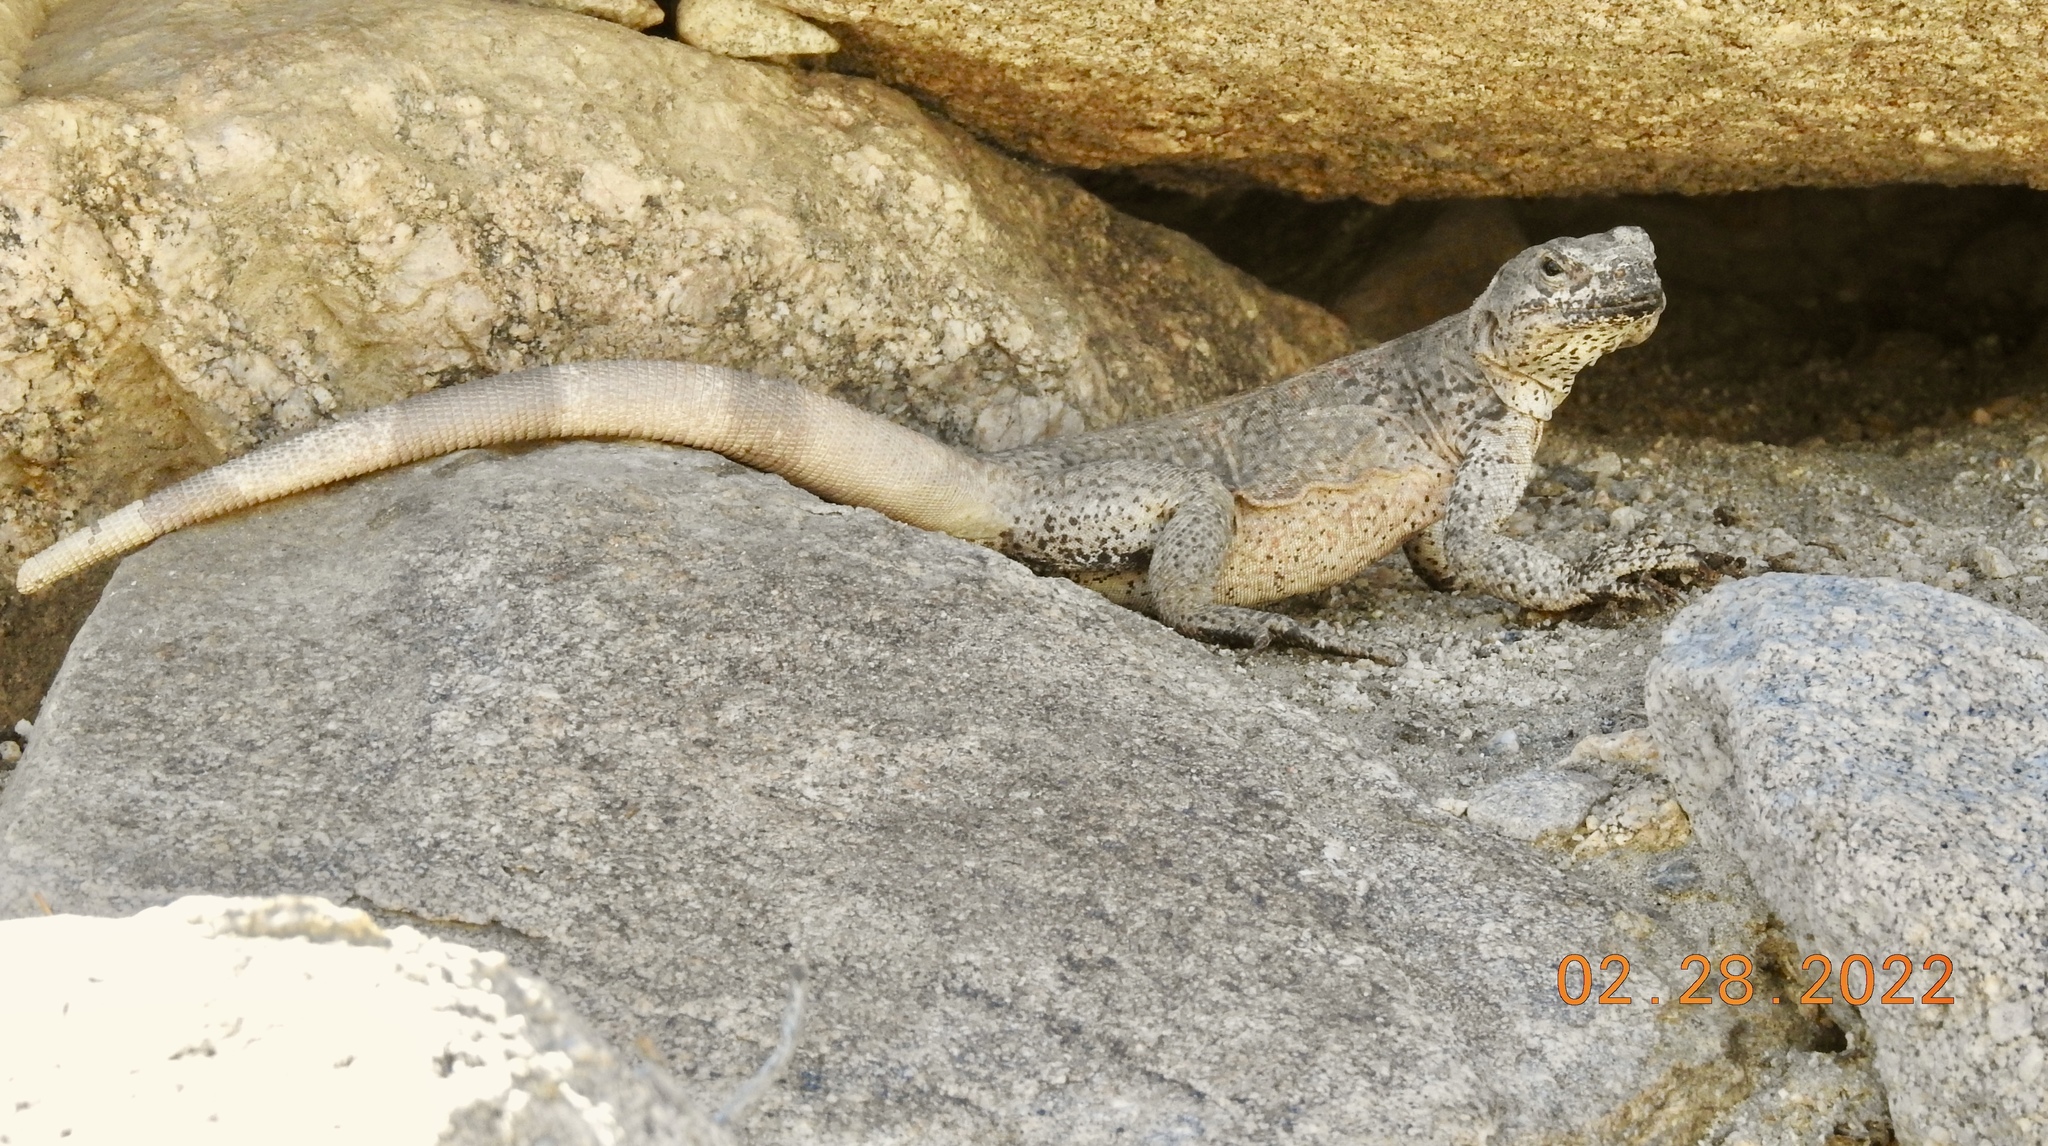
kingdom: Animalia
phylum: Chordata
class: Squamata
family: Iguanidae
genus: Sauromalus
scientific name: Sauromalus ater
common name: Northern chuckwalla
